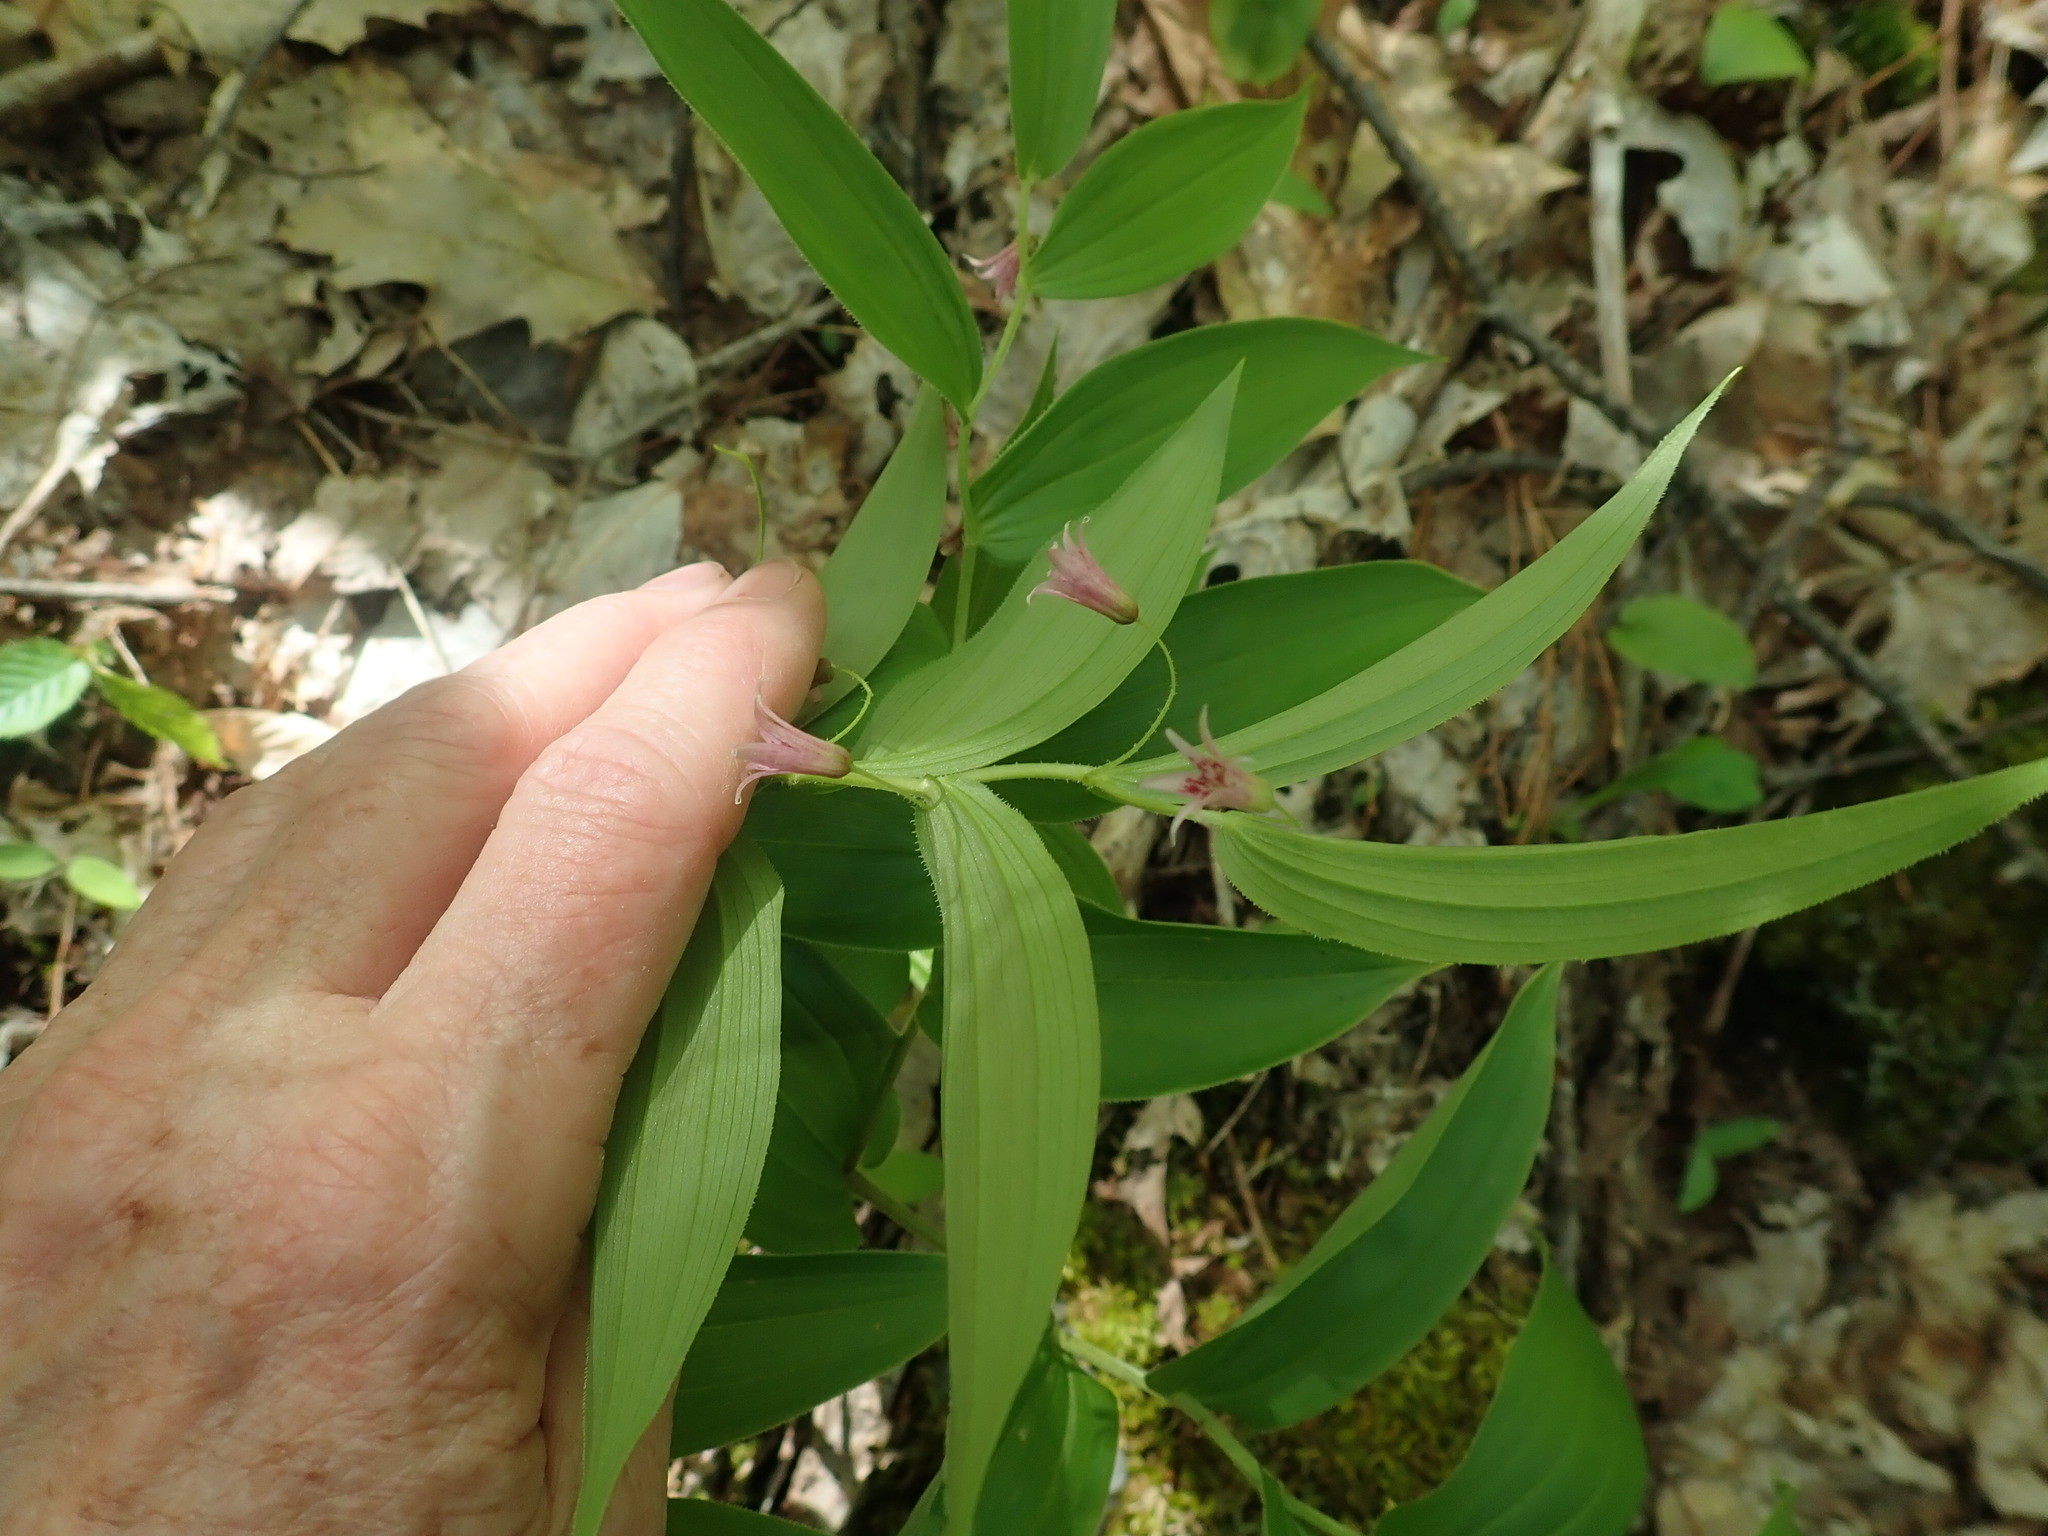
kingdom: Plantae
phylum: Tracheophyta
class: Liliopsida
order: Liliales
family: Liliaceae
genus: Streptopus
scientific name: Streptopus lanceolatus
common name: Rose mandarin
